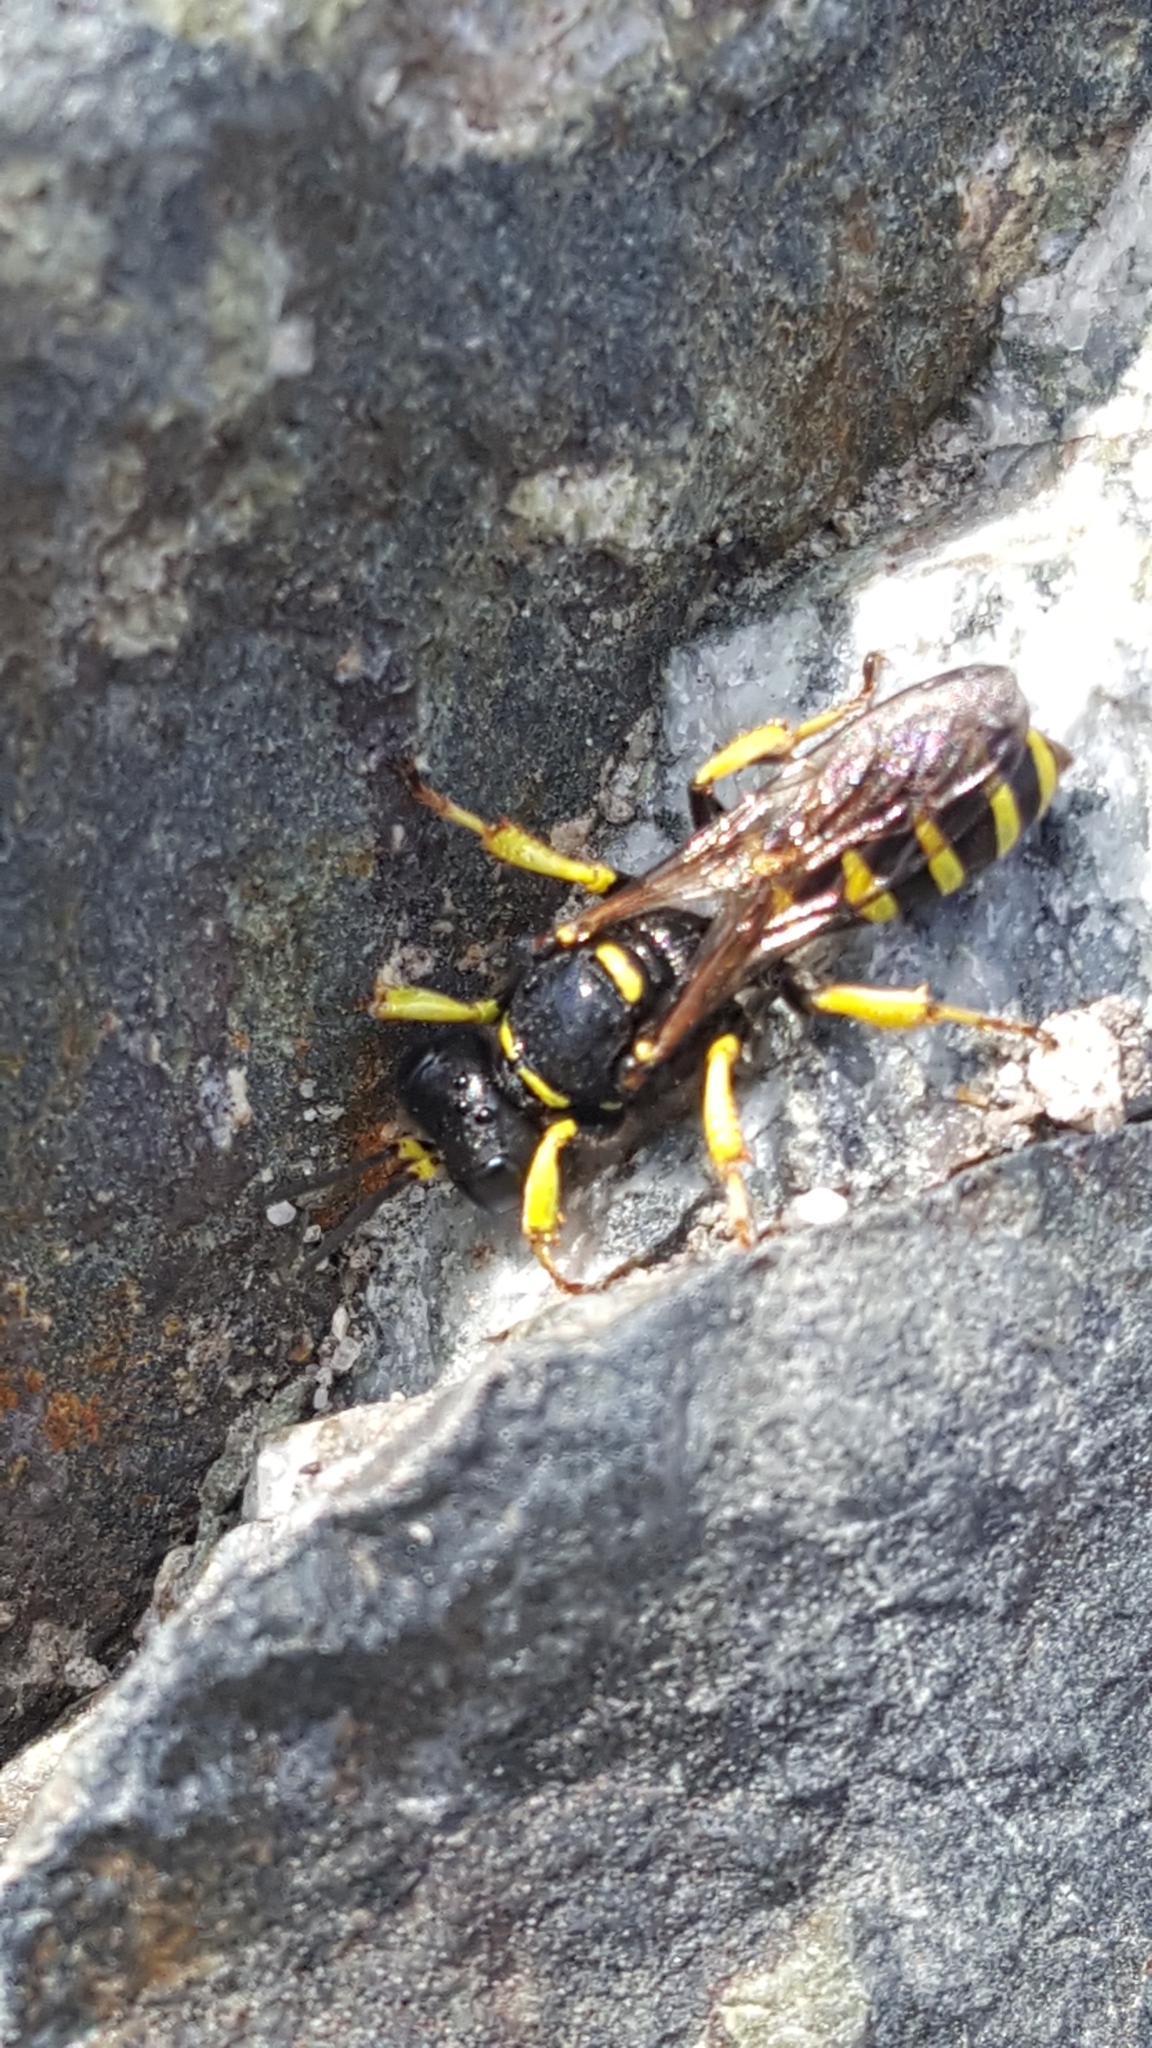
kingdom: Animalia
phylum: Arthropoda
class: Insecta
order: Hymenoptera
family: Crabronidae
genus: Crabro
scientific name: Crabro
